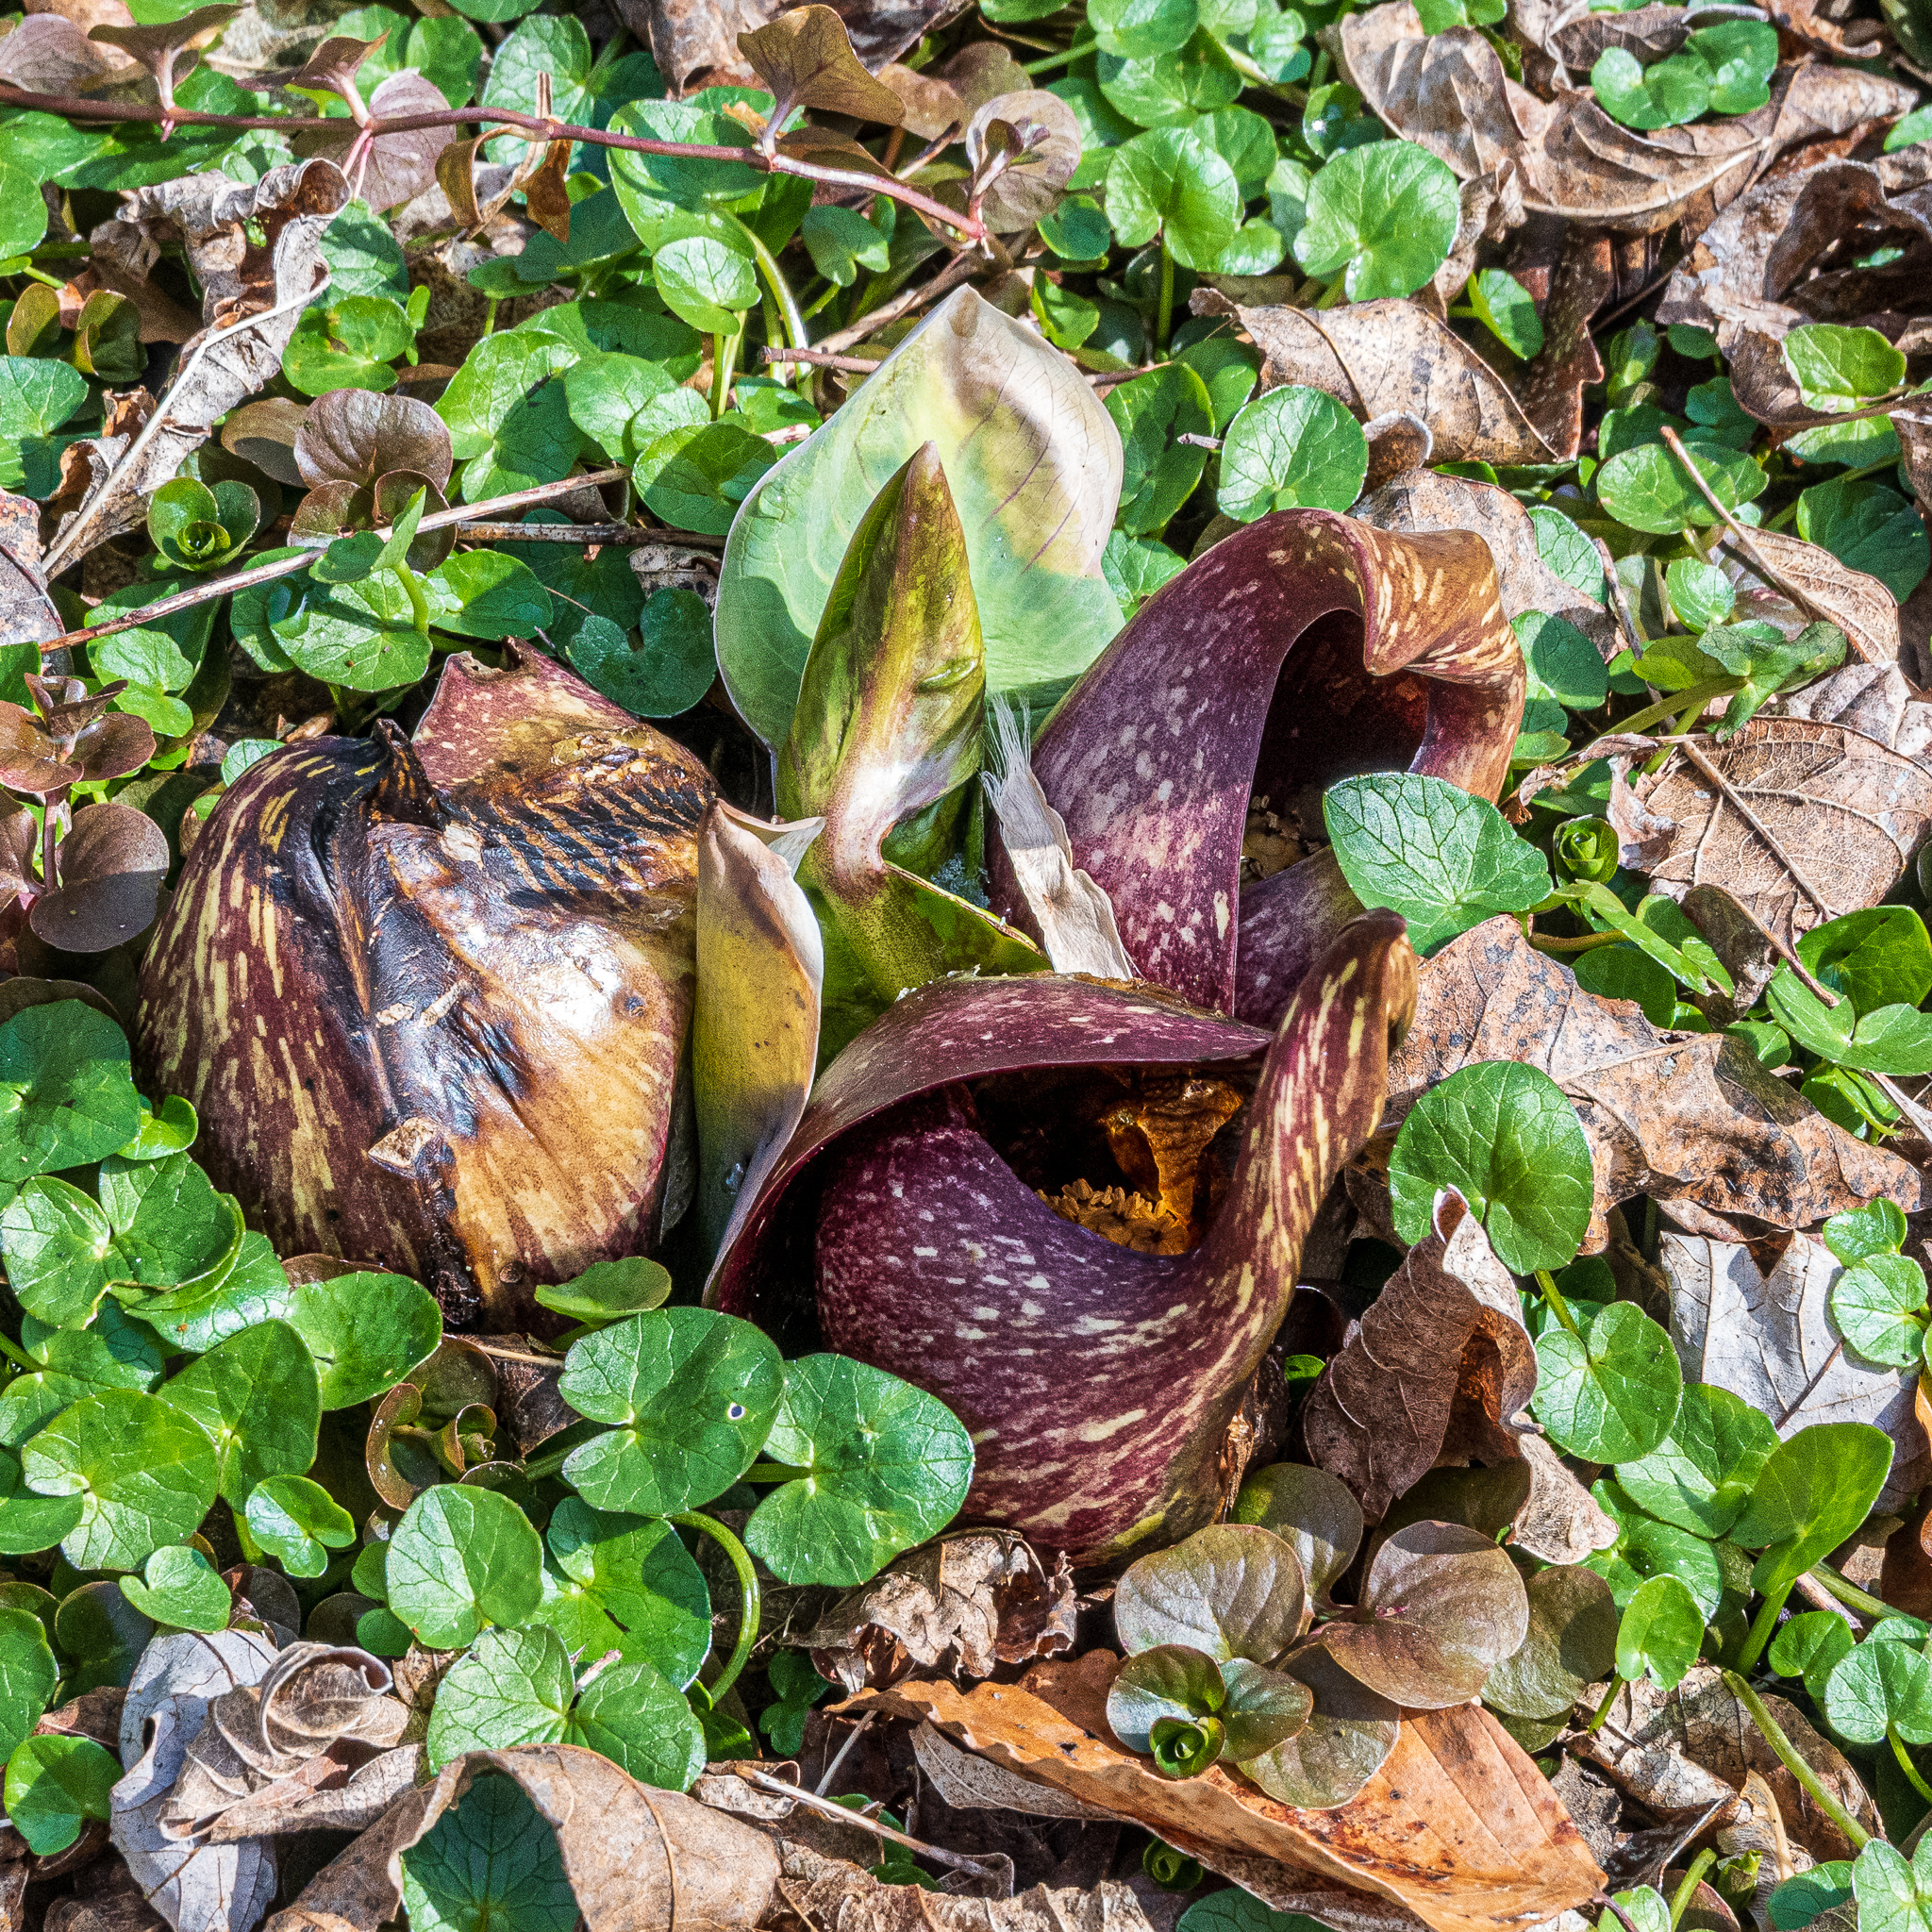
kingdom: Plantae
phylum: Tracheophyta
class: Liliopsida
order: Alismatales
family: Araceae
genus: Symplocarpus
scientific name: Symplocarpus foetidus
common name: Eastern skunk cabbage
